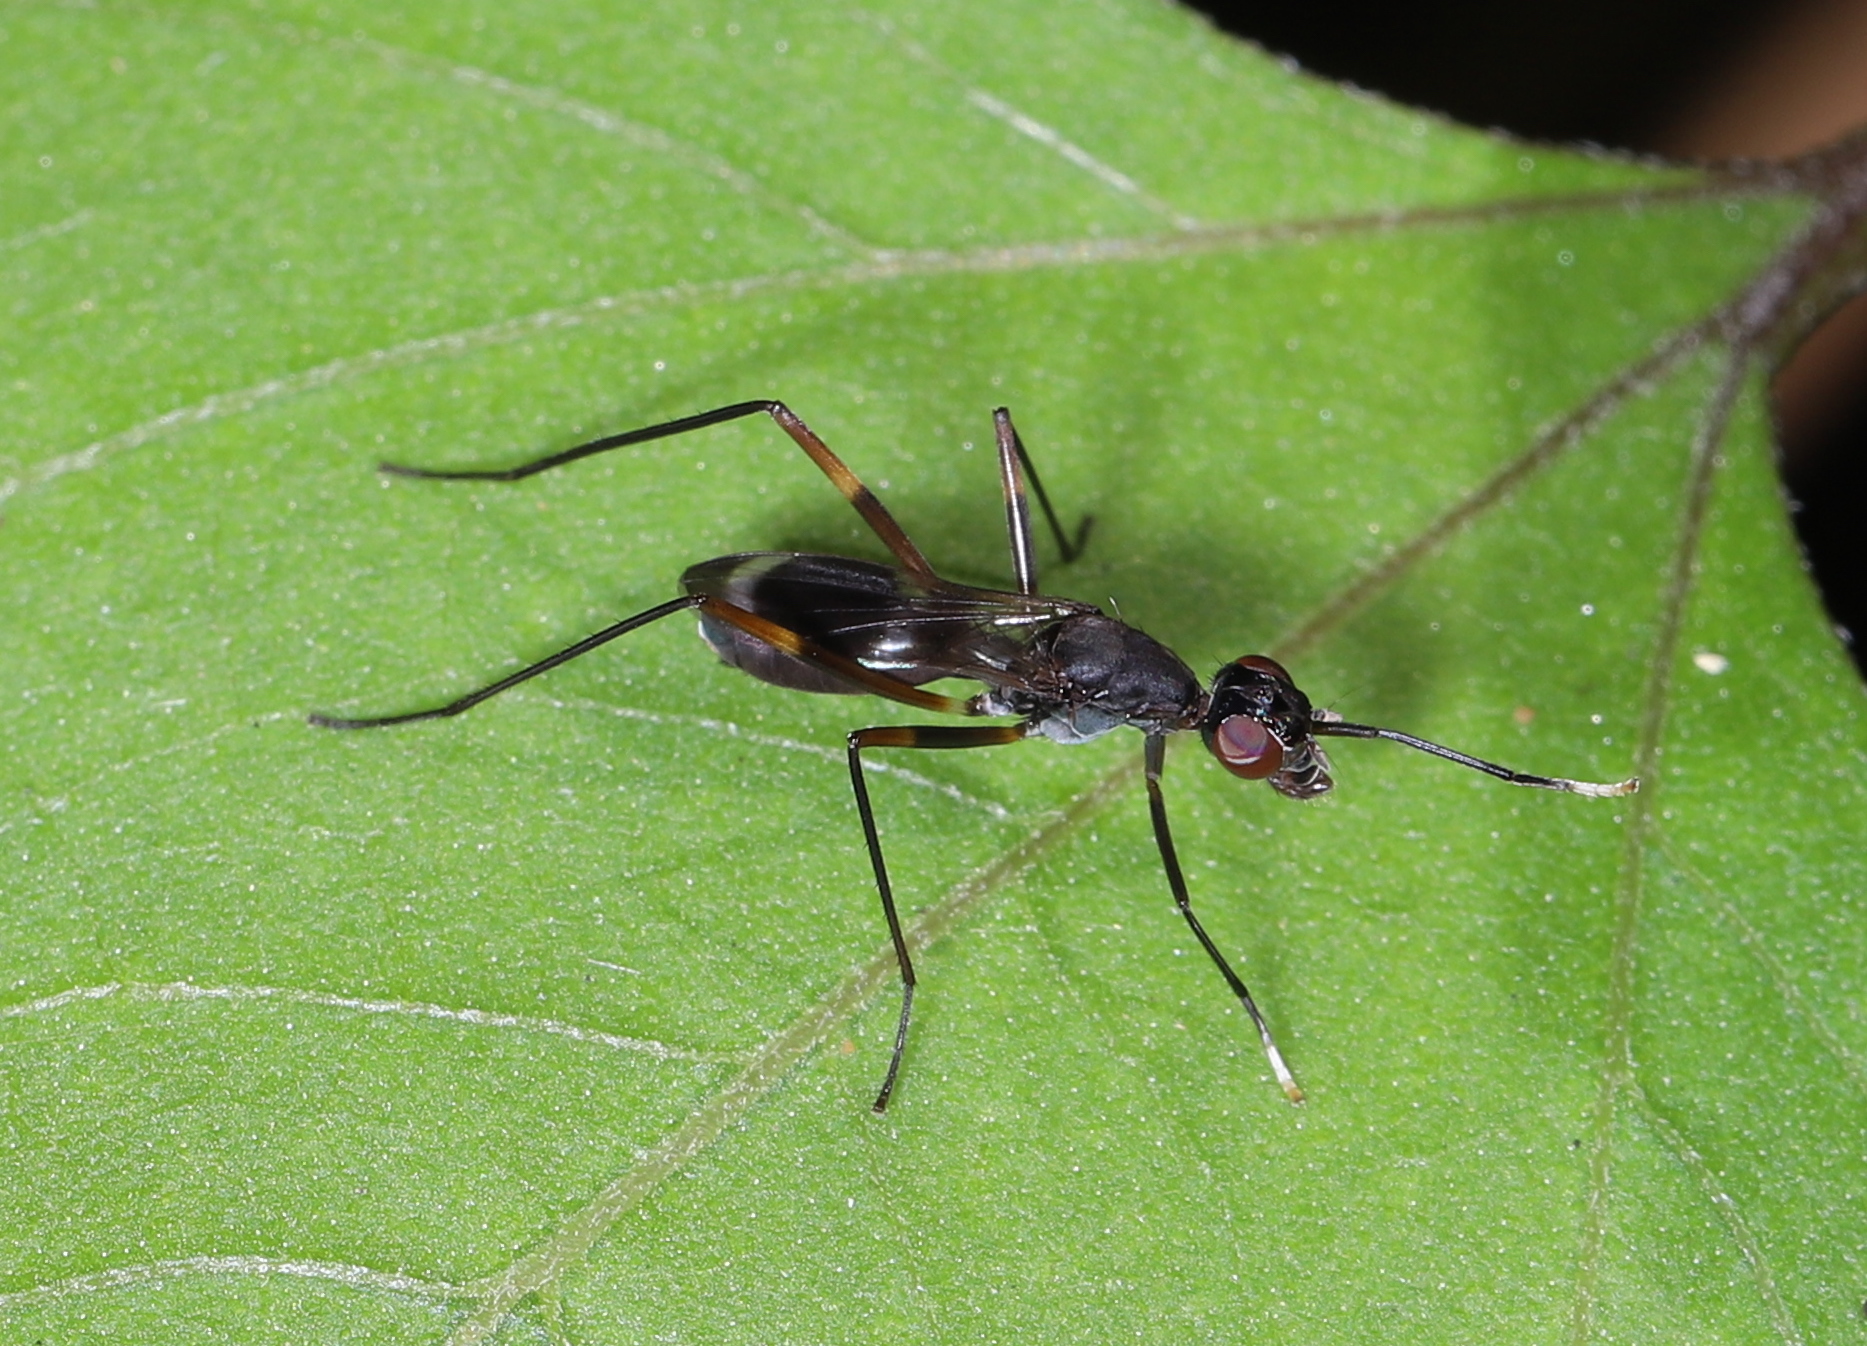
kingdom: Animalia
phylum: Arthropoda
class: Insecta
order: Diptera
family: Micropezidae
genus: Taeniaptera
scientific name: Taeniaptera trivittata
